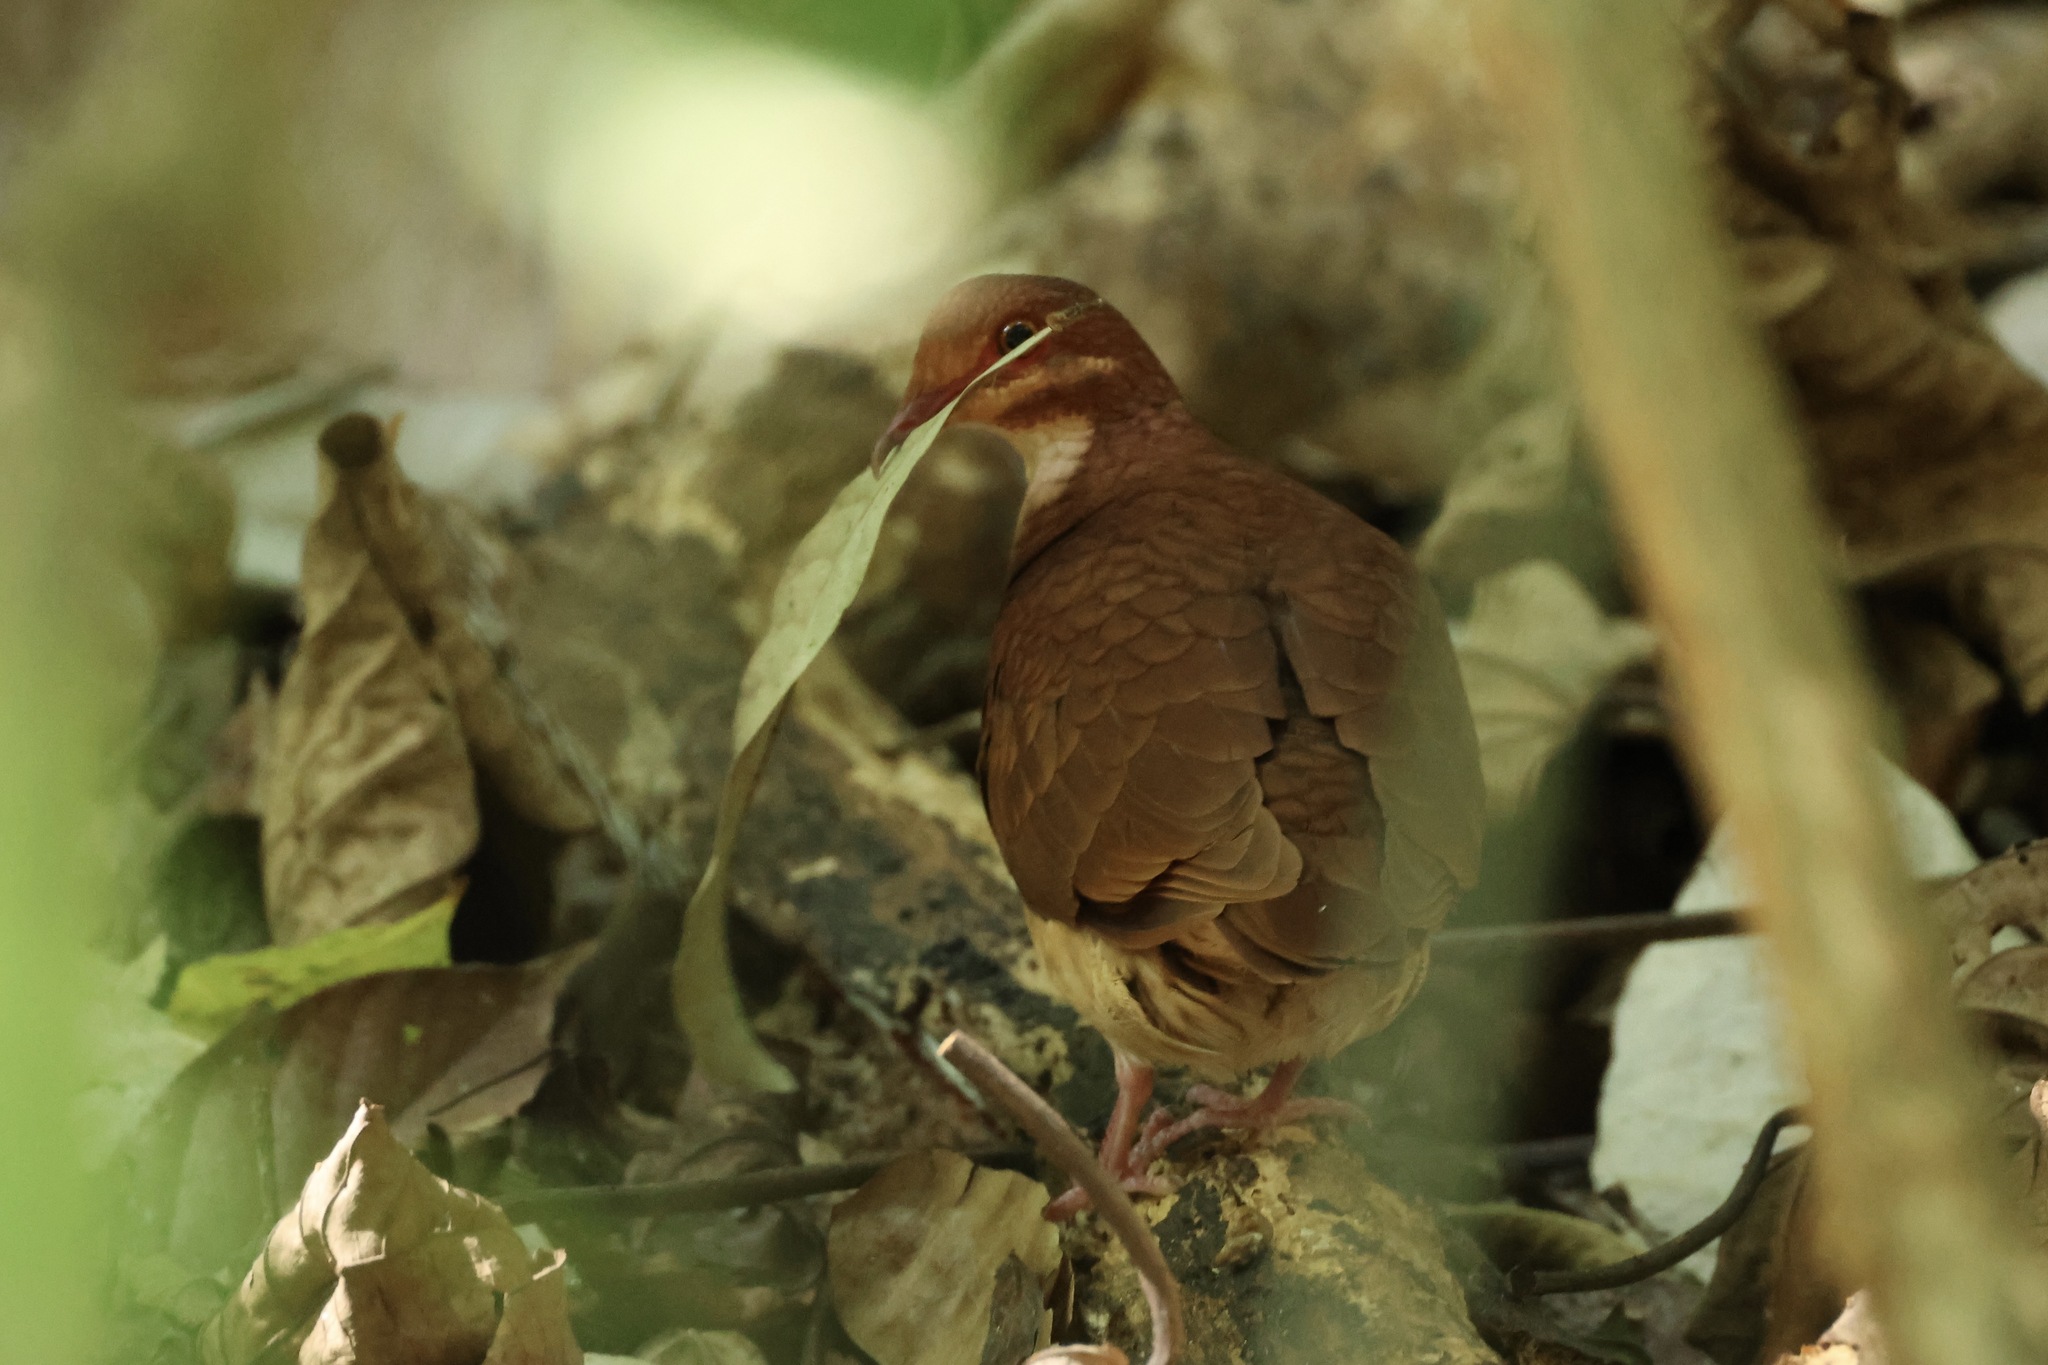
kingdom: Animalia
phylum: Chordata
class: Aves
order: Columbiformes
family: Columbidae
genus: Geotrygon
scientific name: Geotrygon montana
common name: Ruddy quail-dove
